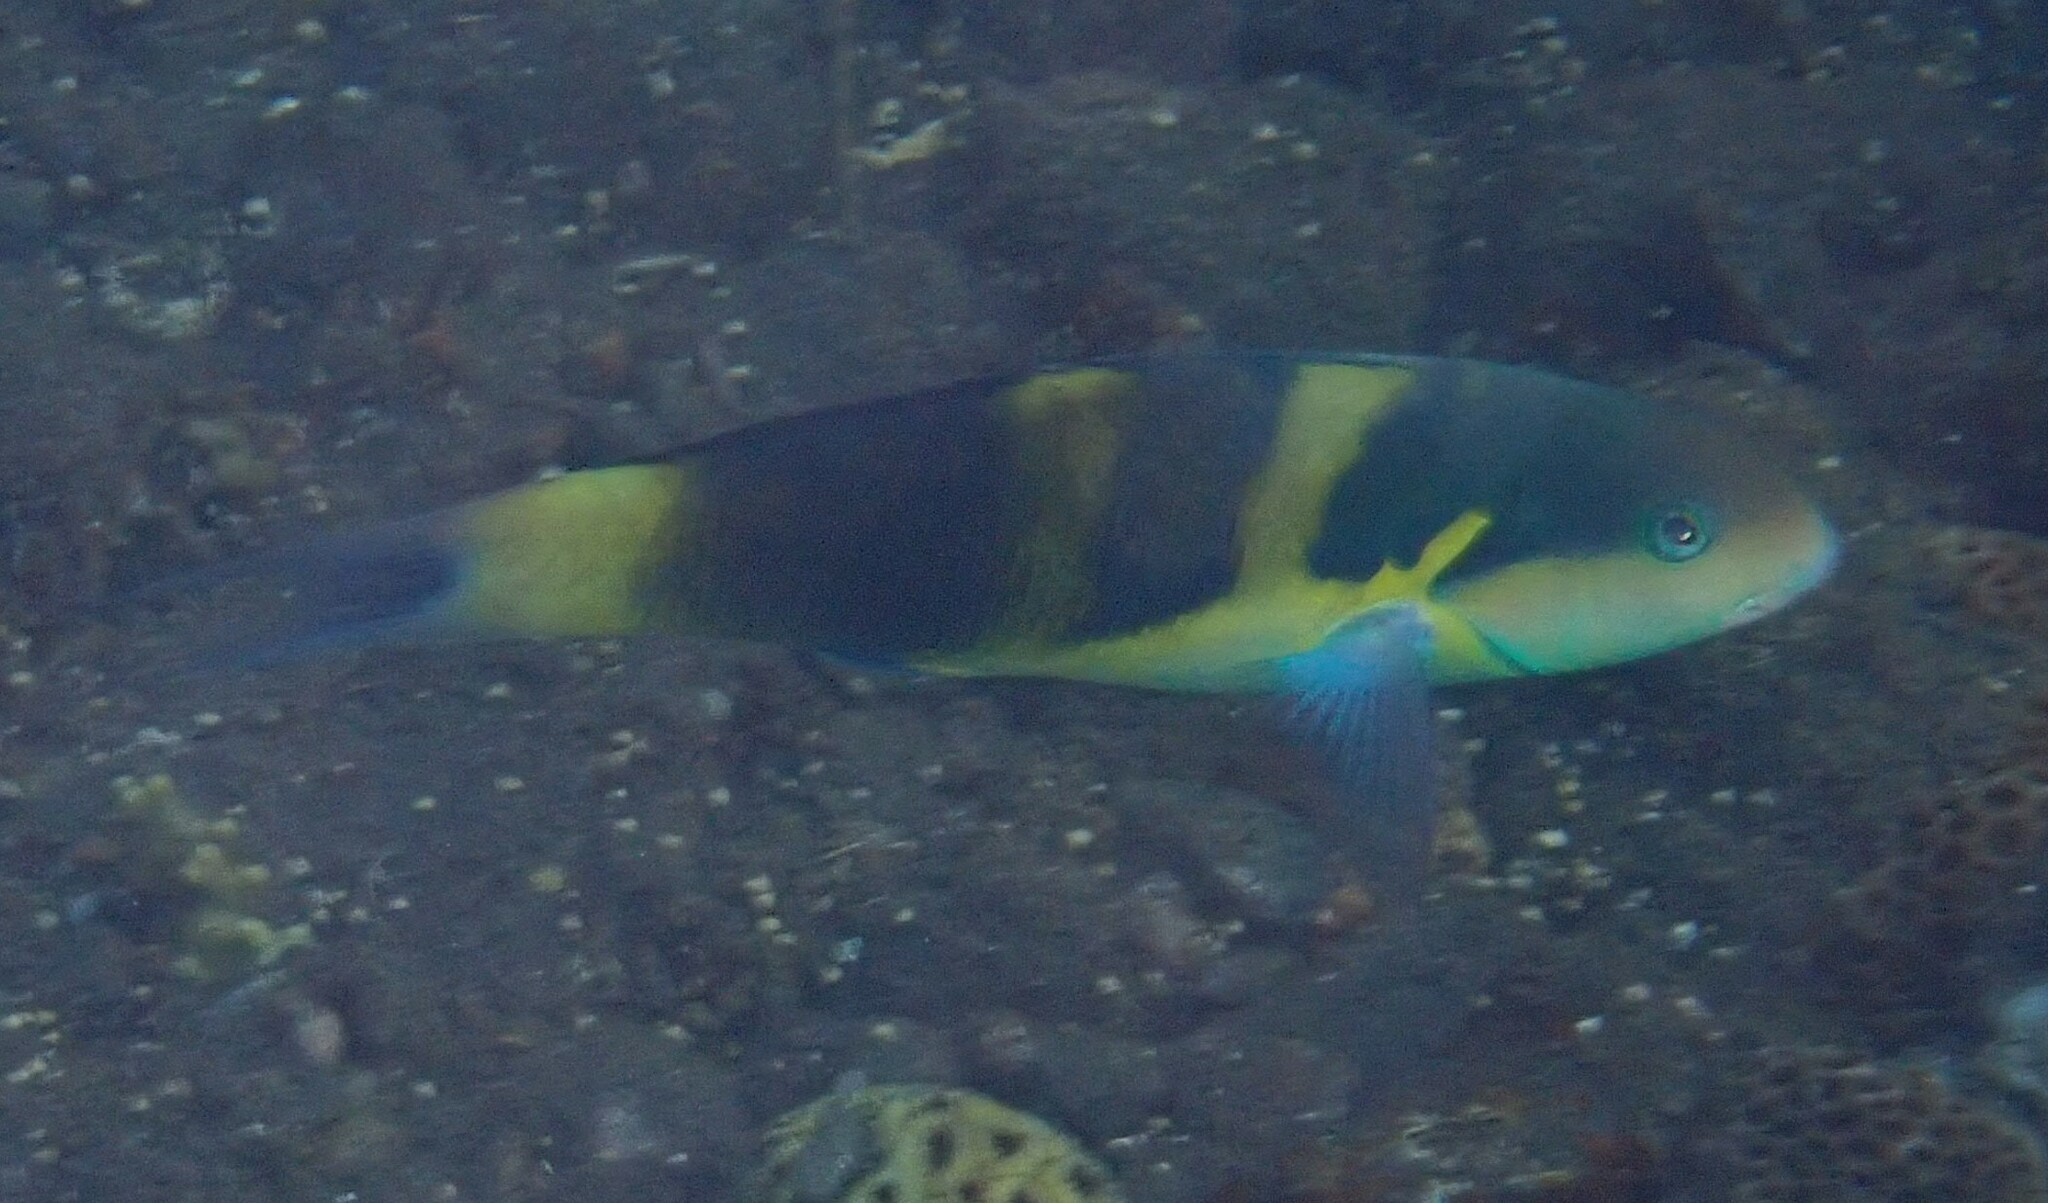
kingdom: Animalia
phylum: Chordata
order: Perciformes
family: Labridae
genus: Thalassoma
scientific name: Thalassoma jansenii
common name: Jansen's wrasse
